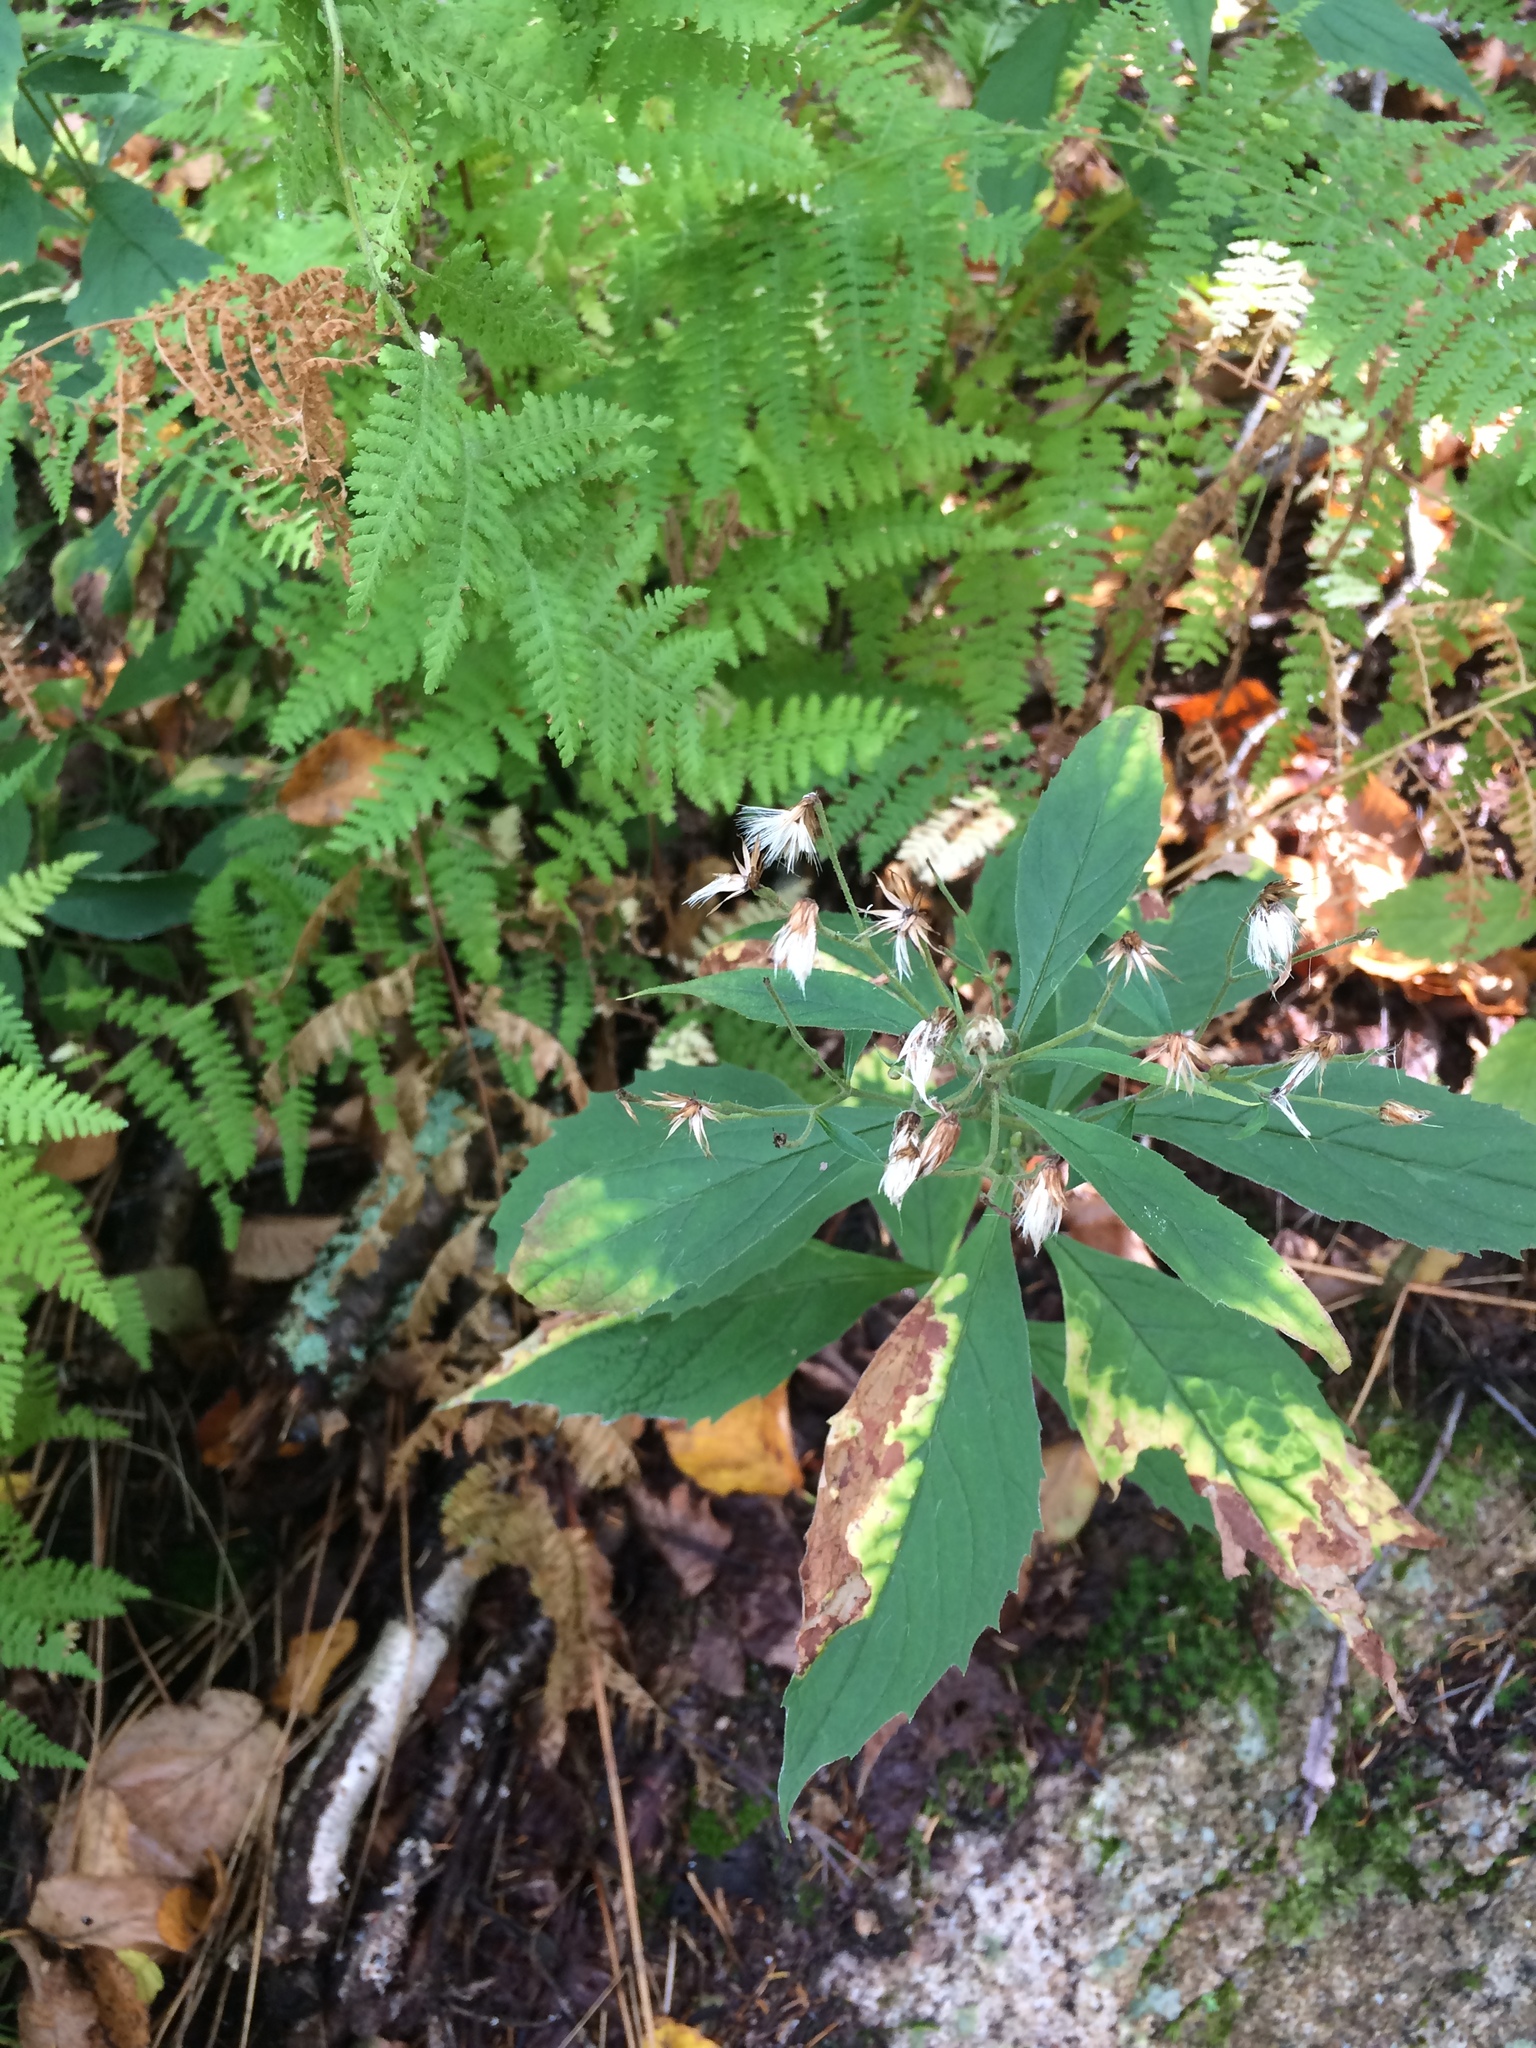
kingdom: Plantae
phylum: Tracheophyta
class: Magnoliopsida
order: Asterales
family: Asteraceae
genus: Oclemena
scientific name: Oclemena acuminata
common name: Mountain aster
